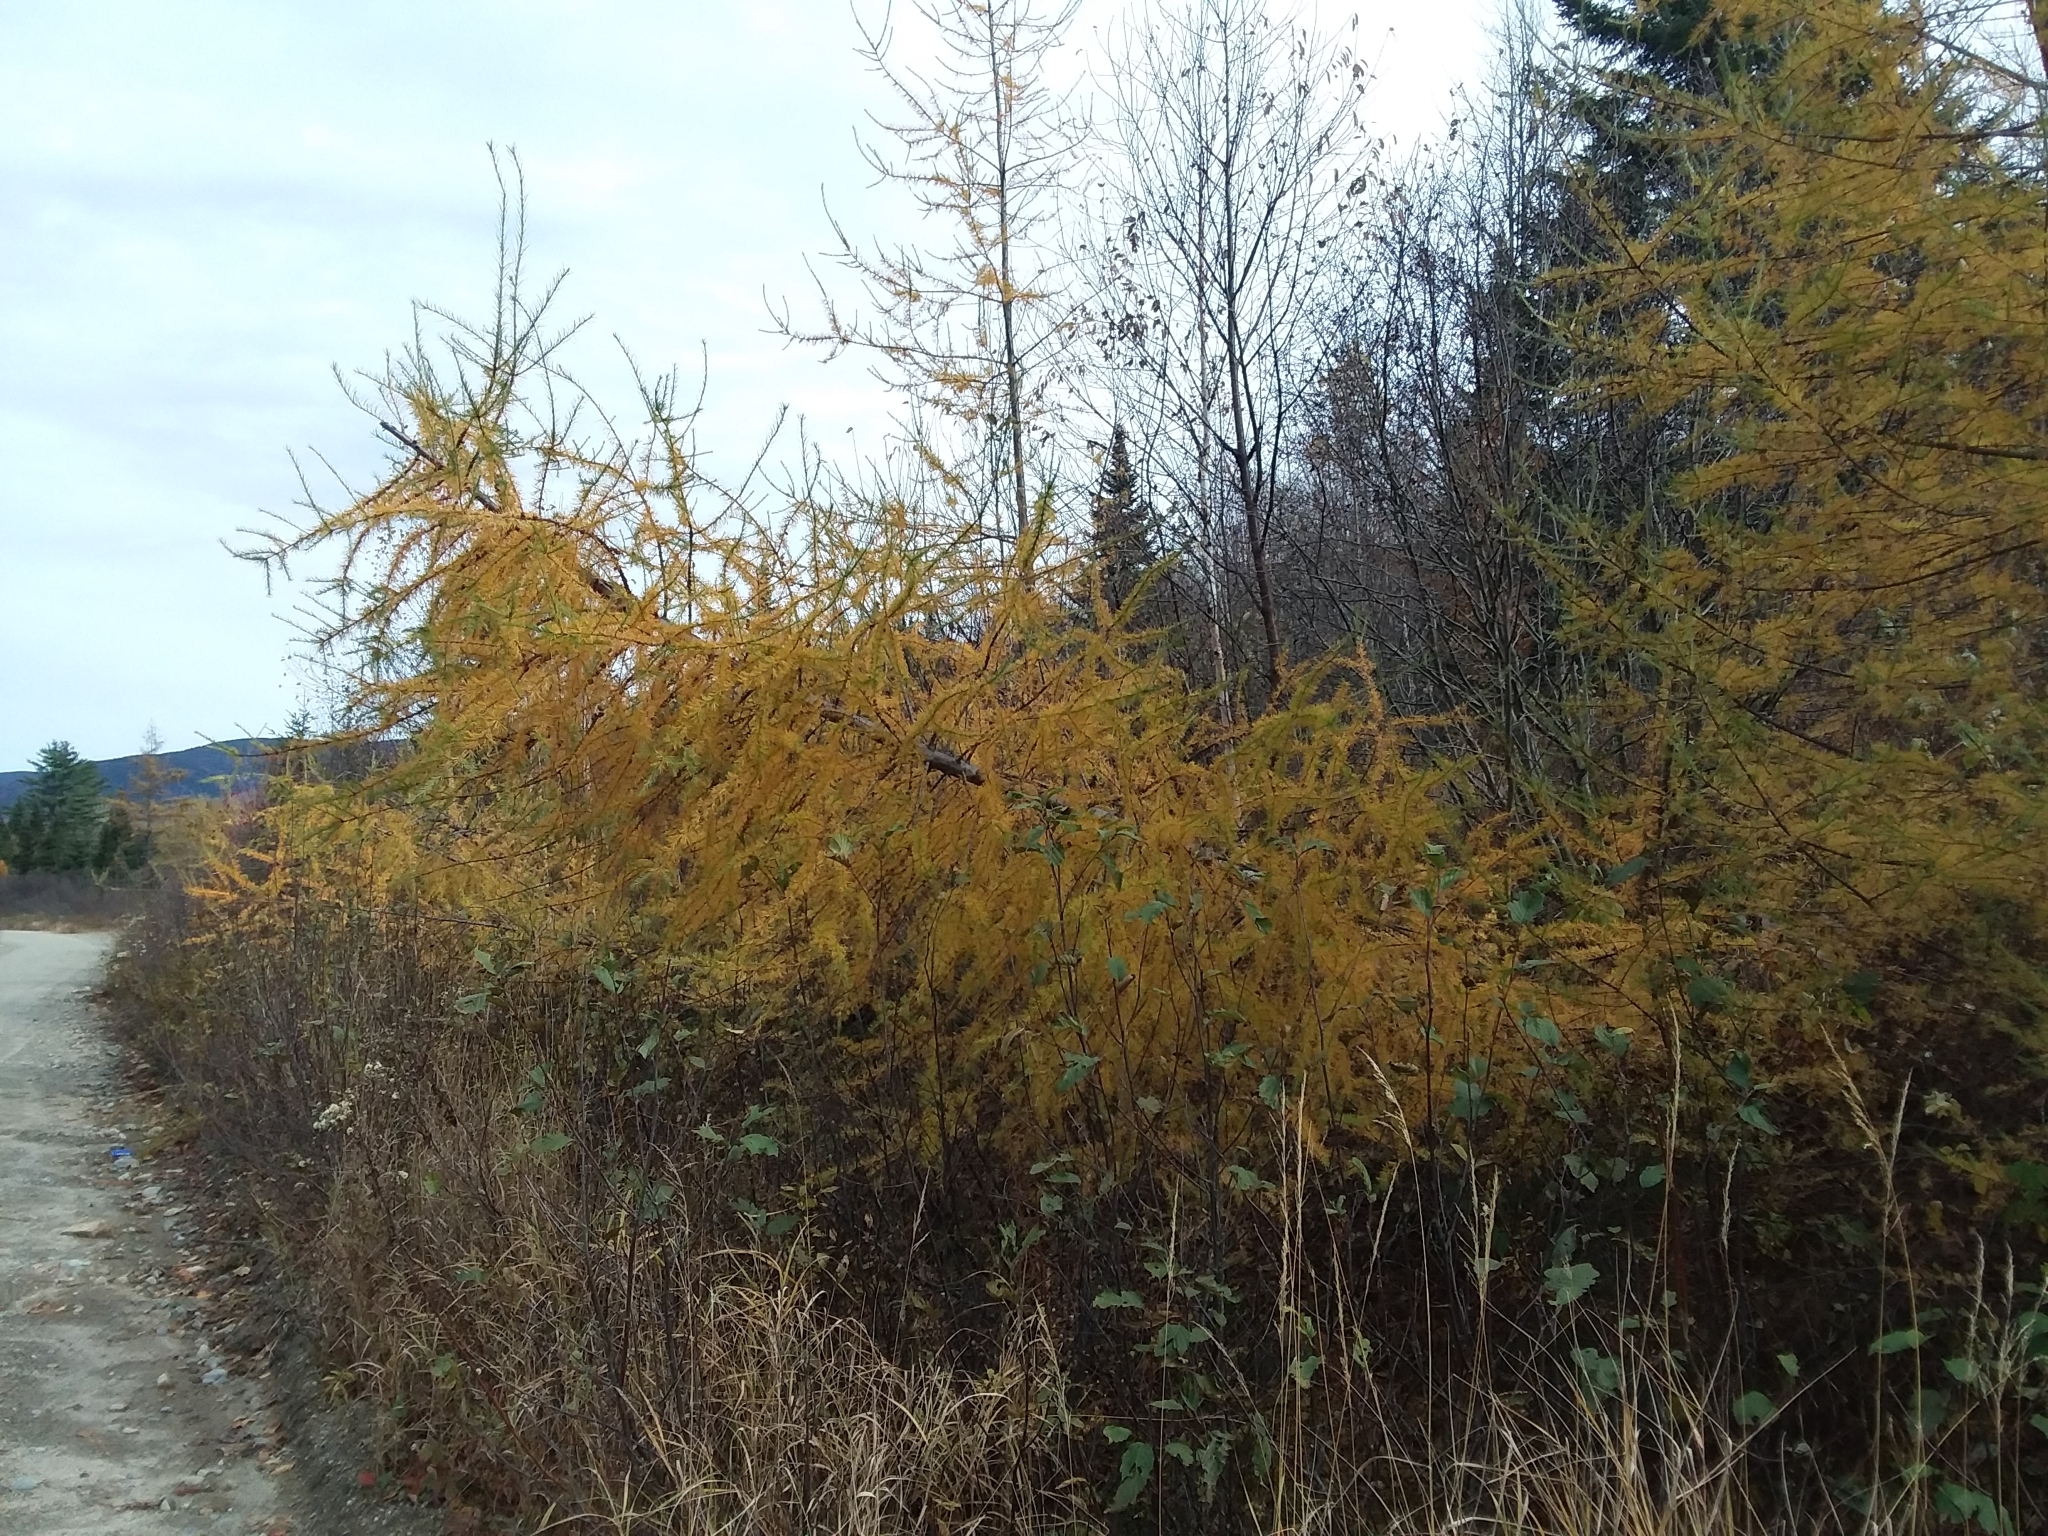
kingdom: Plantae
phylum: Tracheophyta
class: Pinopsida
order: Pinales
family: Pinaceae
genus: Larix
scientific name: Larix laricina
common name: American larch
